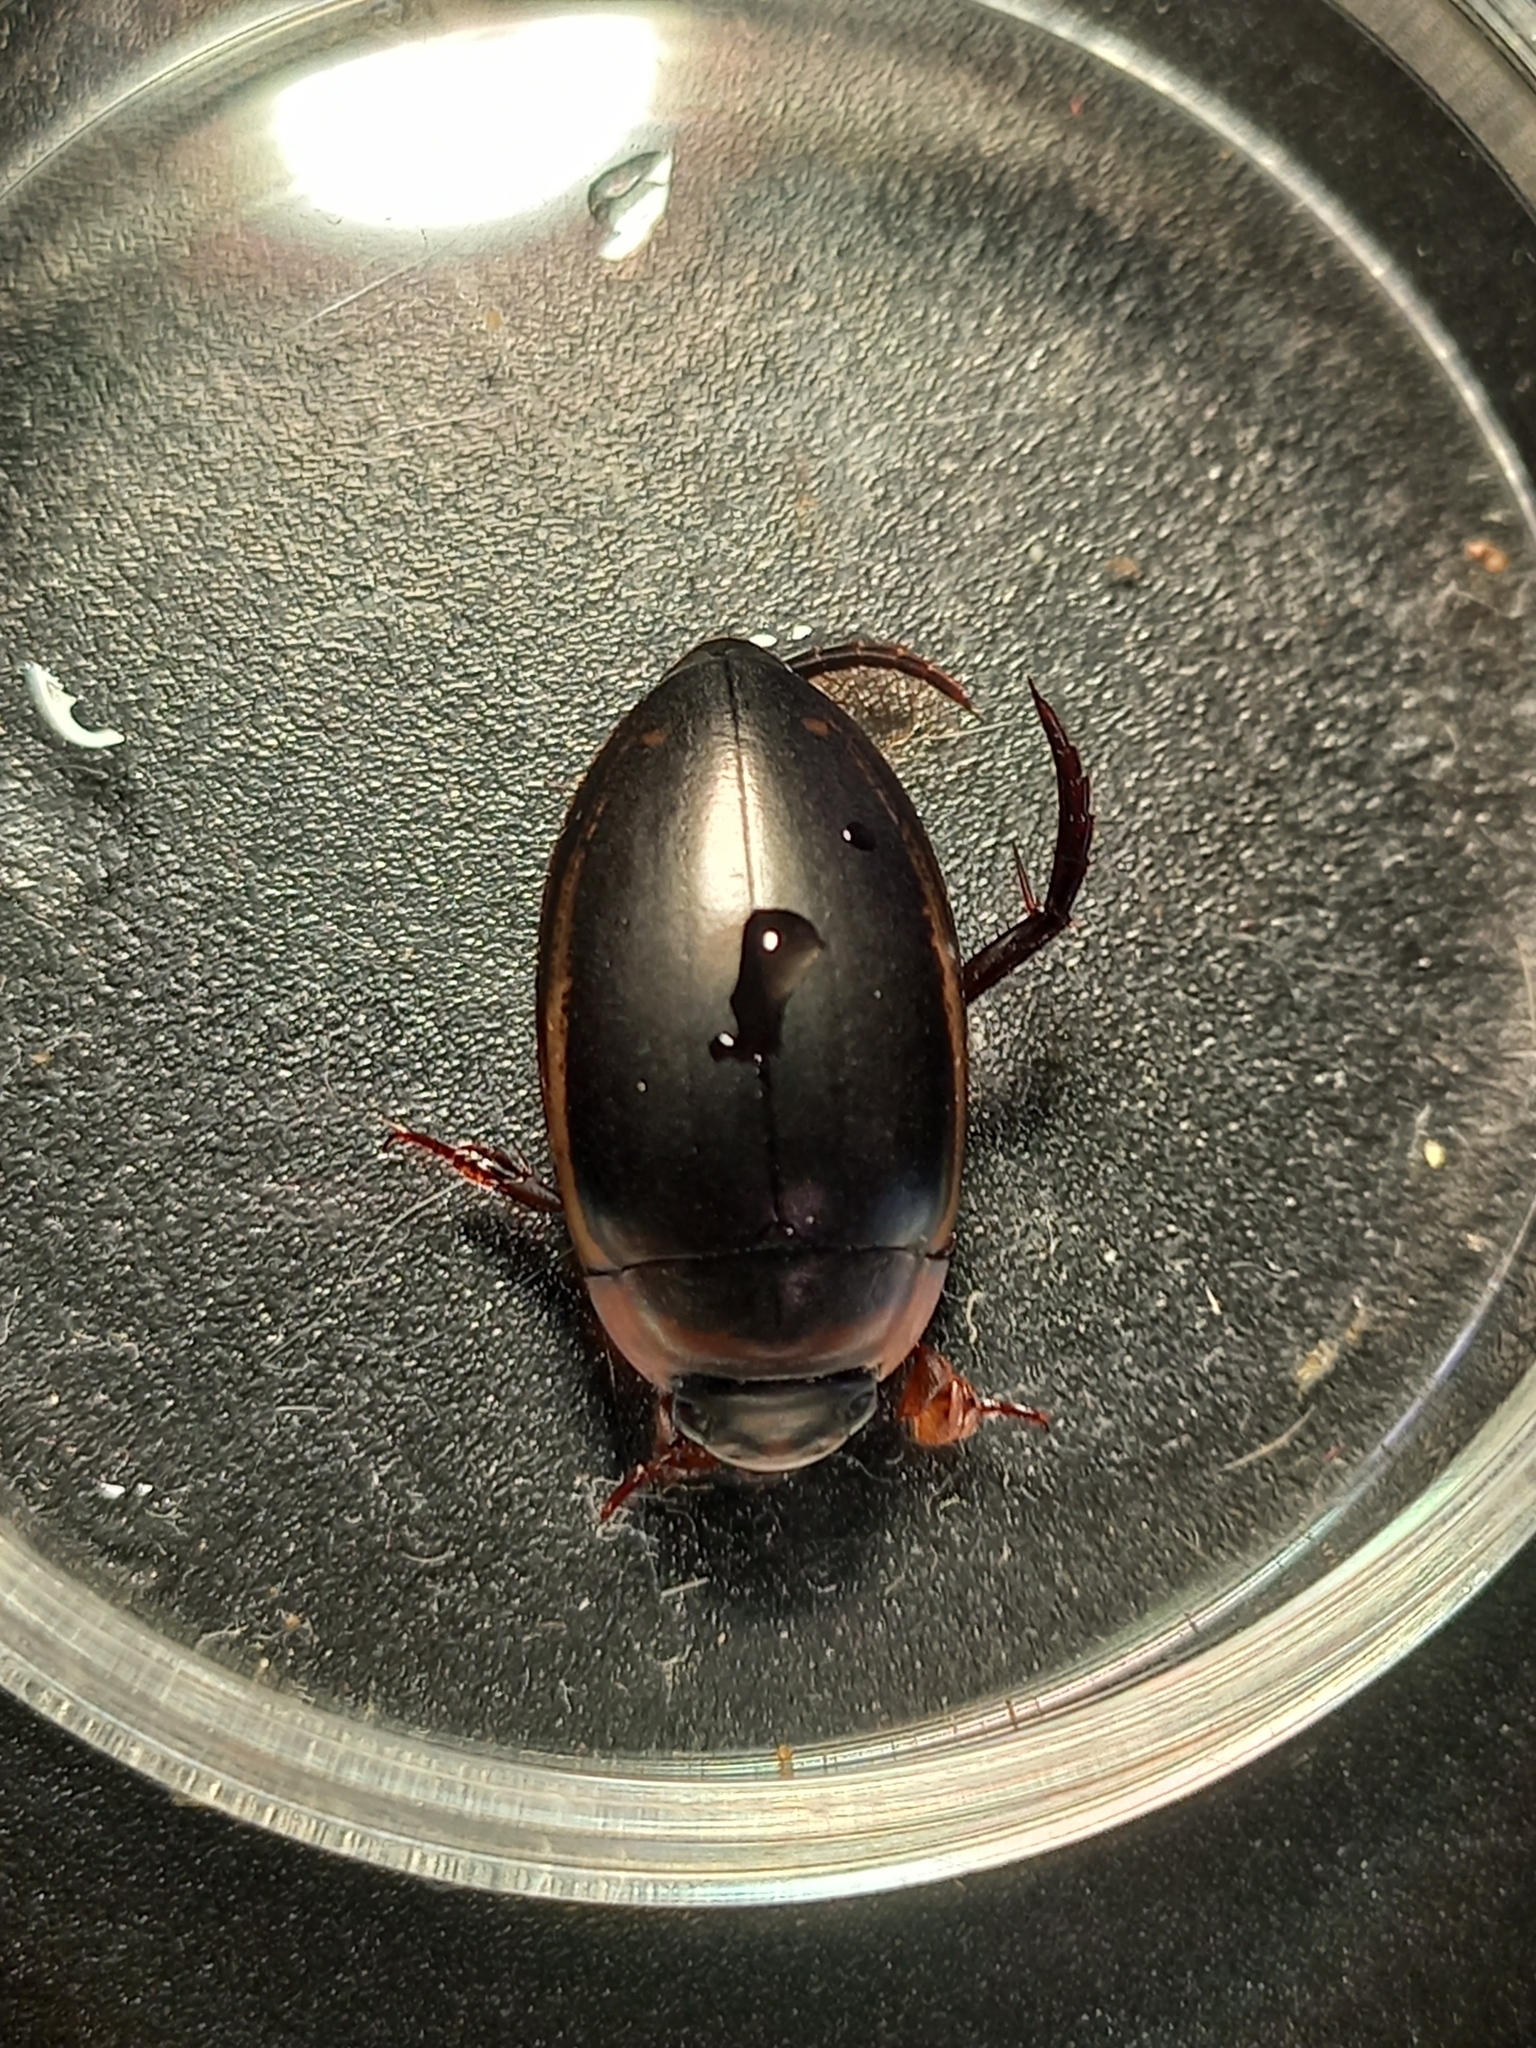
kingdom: Animalia
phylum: Arthropoda
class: Insecta
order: Coleoptera
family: Dytiscidae
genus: Hydaticus
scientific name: Hydaticus seminiger
